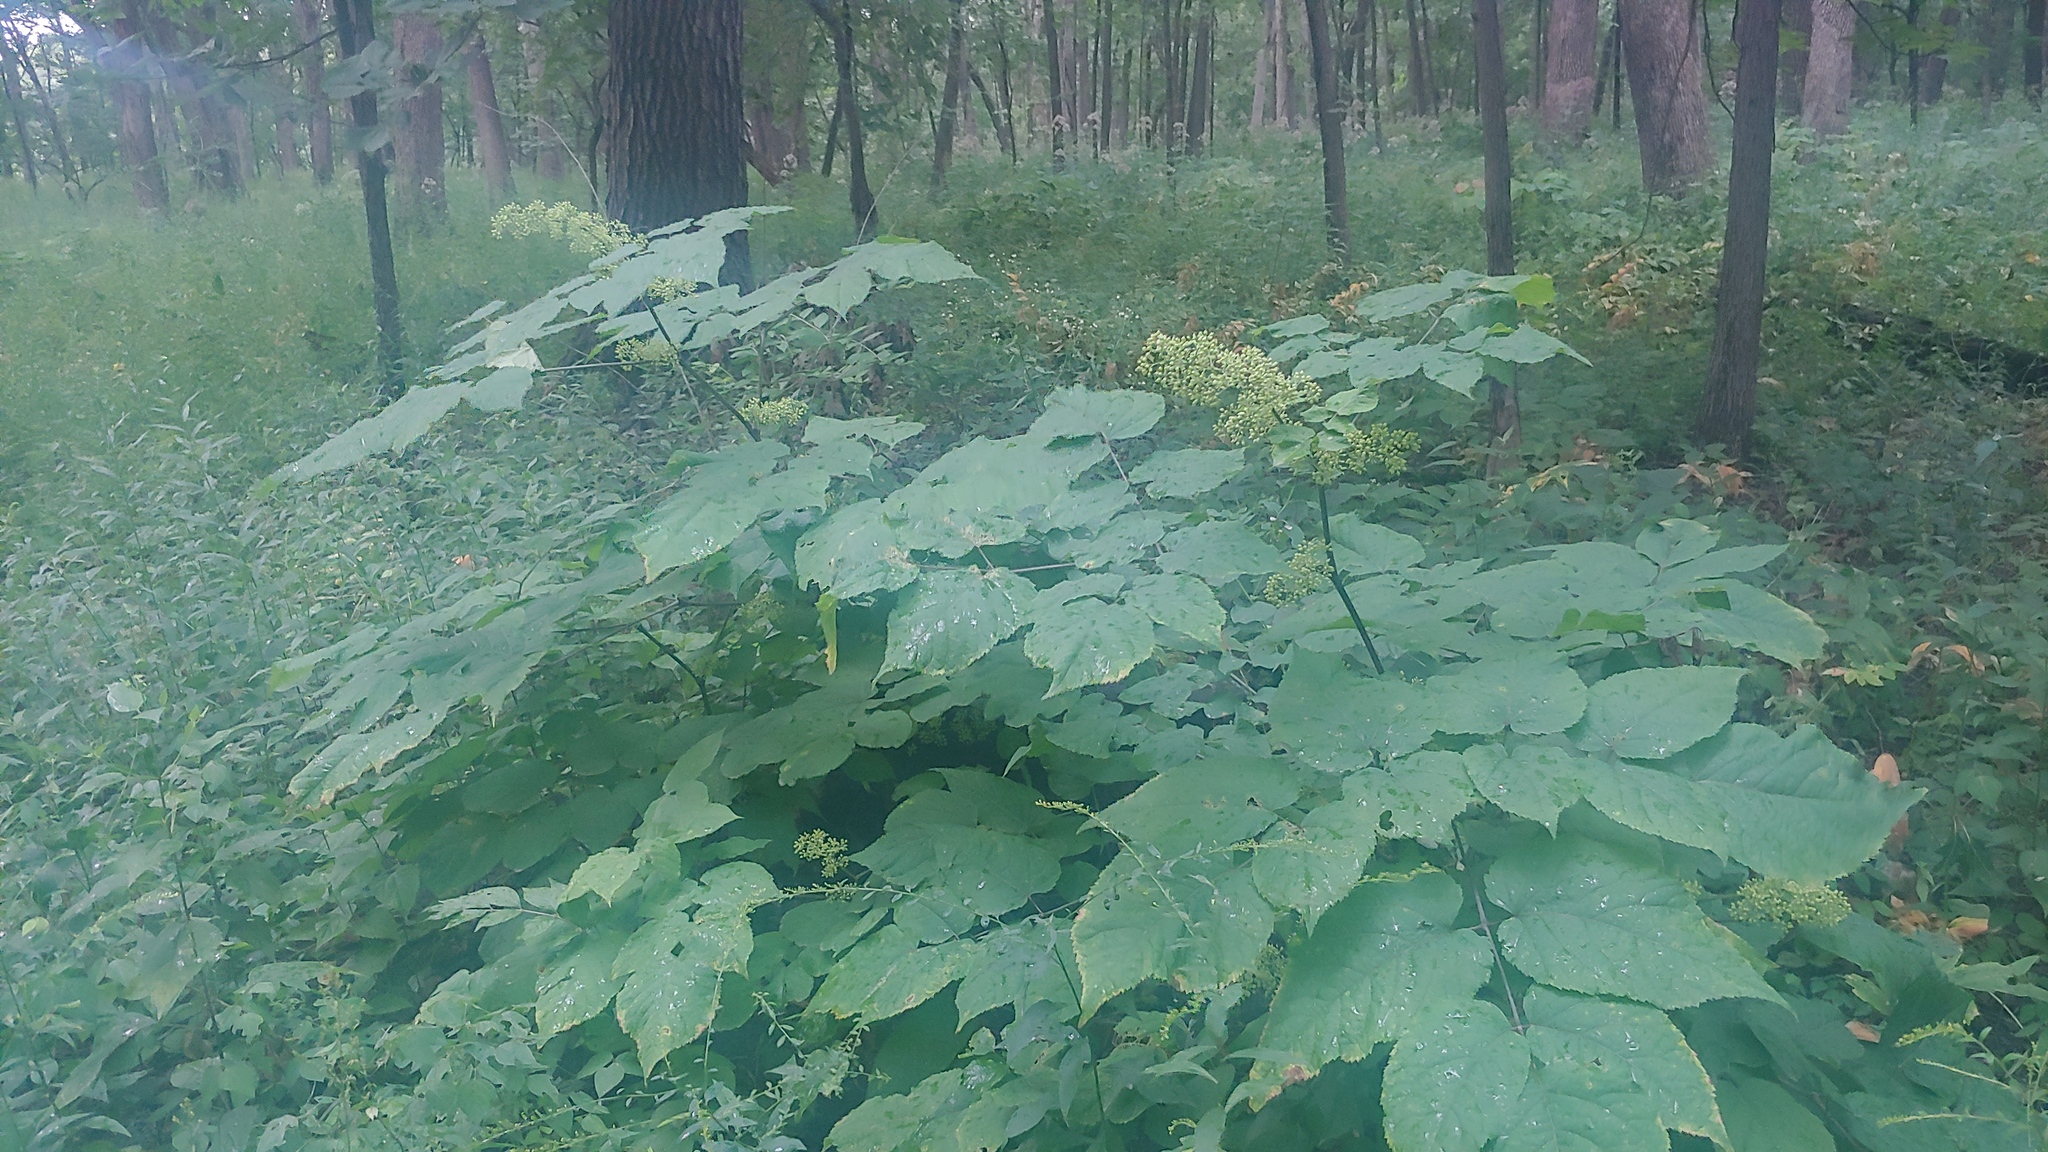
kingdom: Plantae
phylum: Tracheophyta
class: Magnoliopsida
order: Apiales
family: Araliaceae
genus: Aralia
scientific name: Aralia racemosa
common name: American-spikenard
